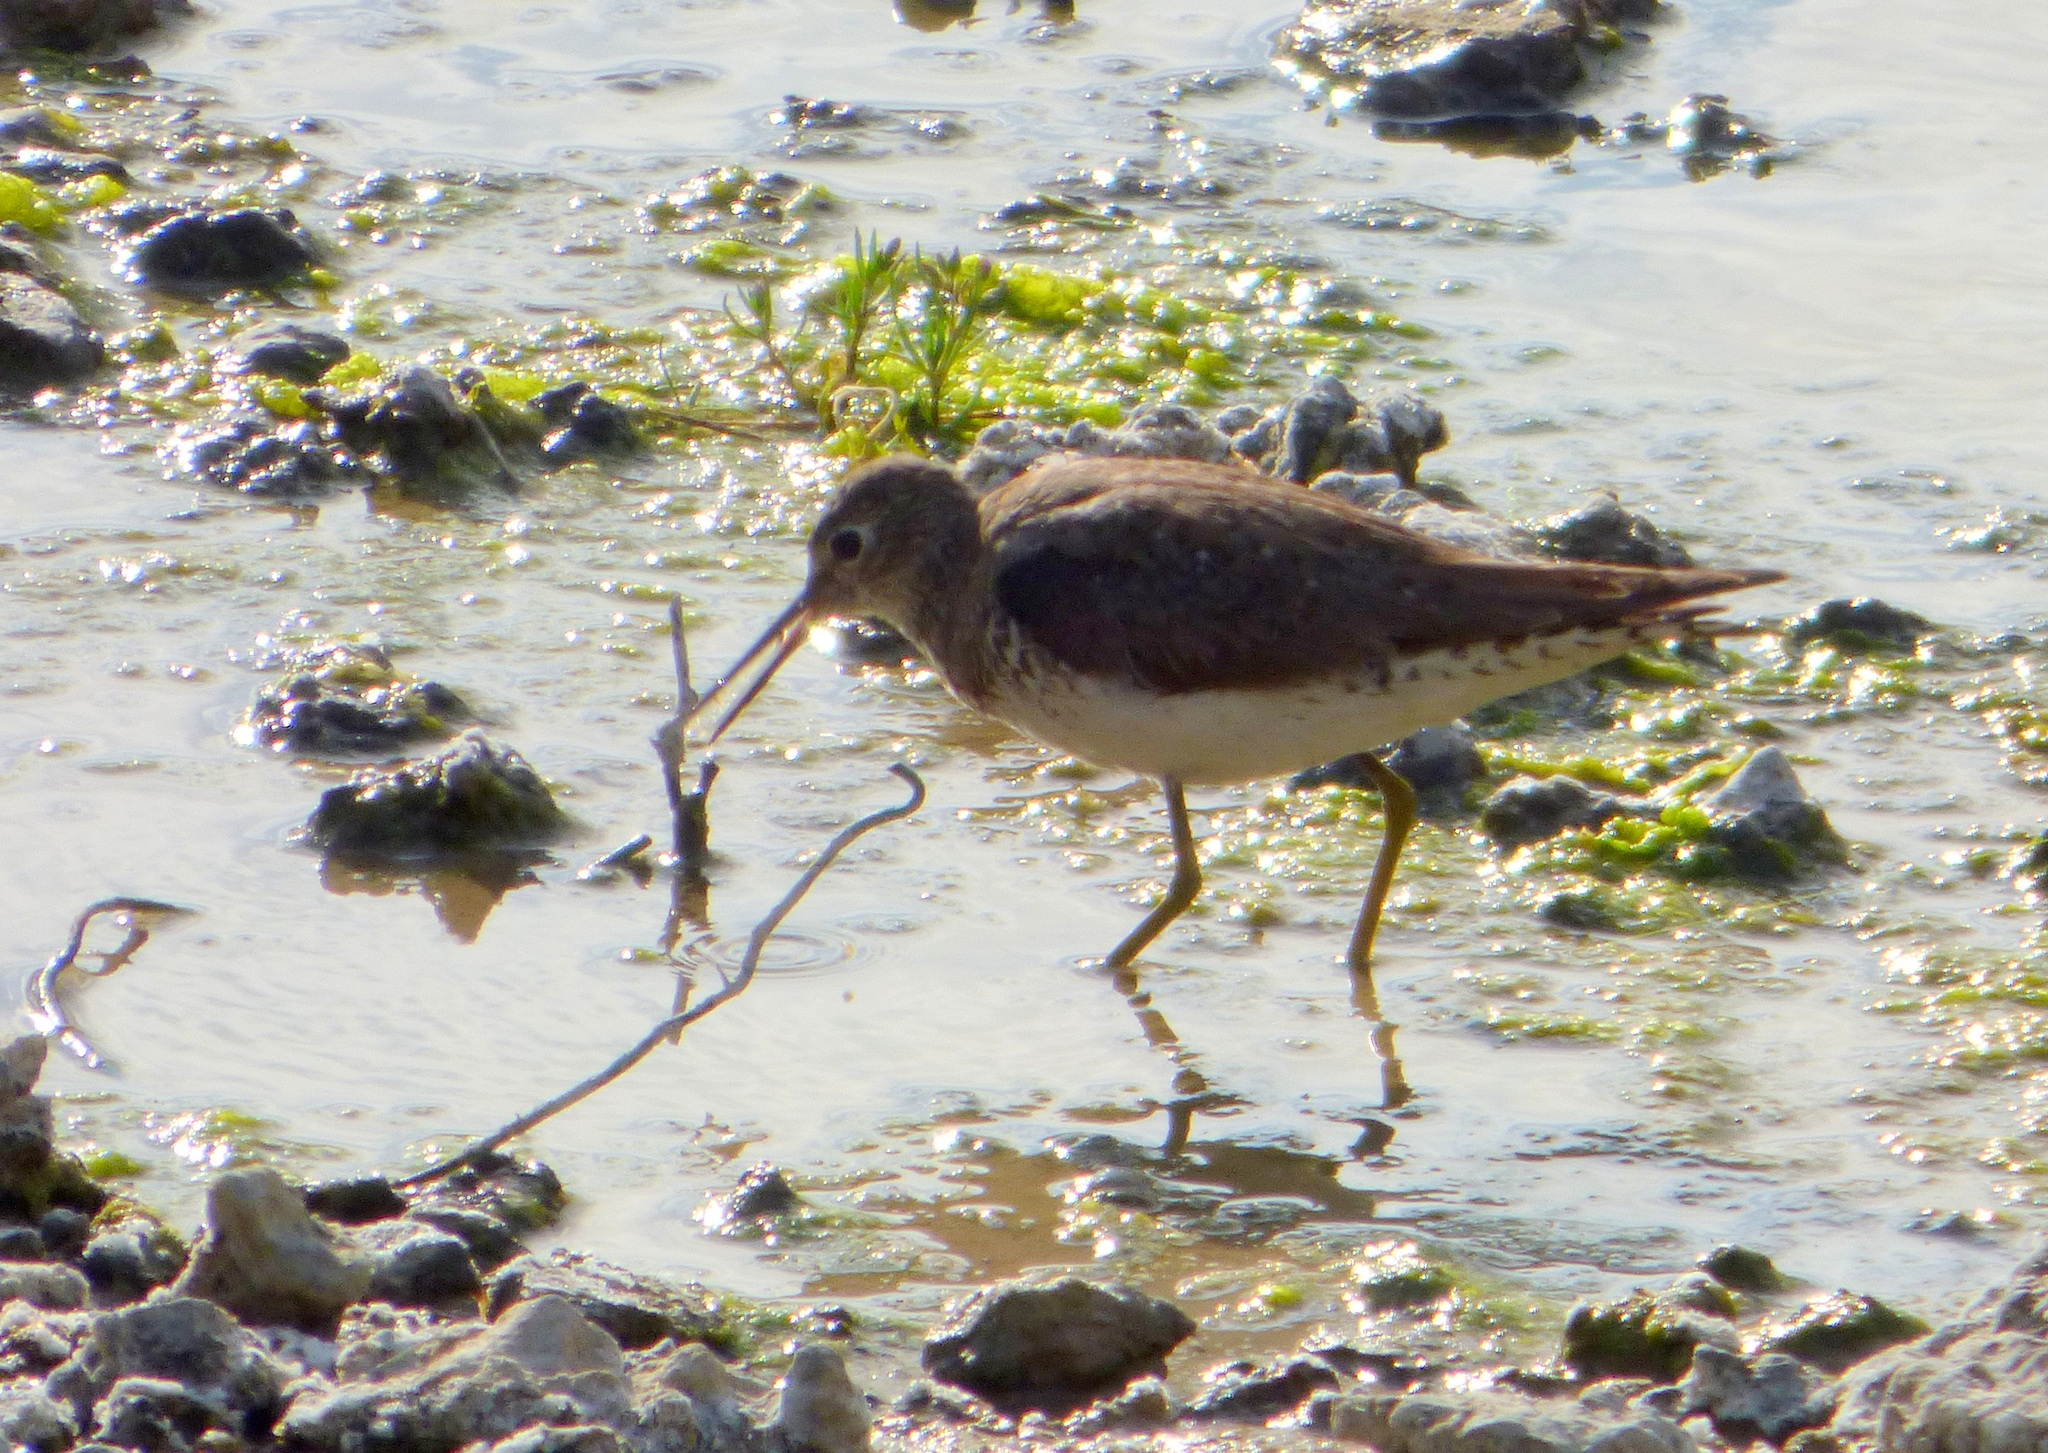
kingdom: Animalia
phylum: Chordata
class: Aves
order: Charadriiformes
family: Scolopacidae
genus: Tringa
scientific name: Tringa solitaria
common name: Solitary sandpiper
